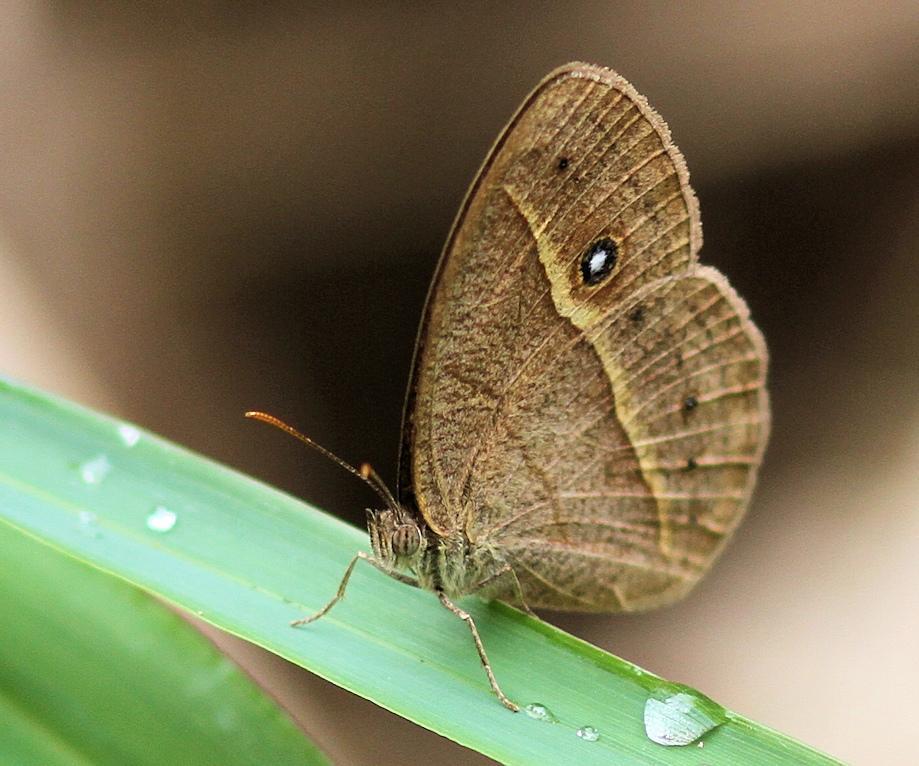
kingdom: Animalia
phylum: Arthropoda
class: Insecta
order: Lepidoptera
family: Nymphalidae
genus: Heteropsis
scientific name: Heteropsis perspicua
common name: Eyed bush brown
